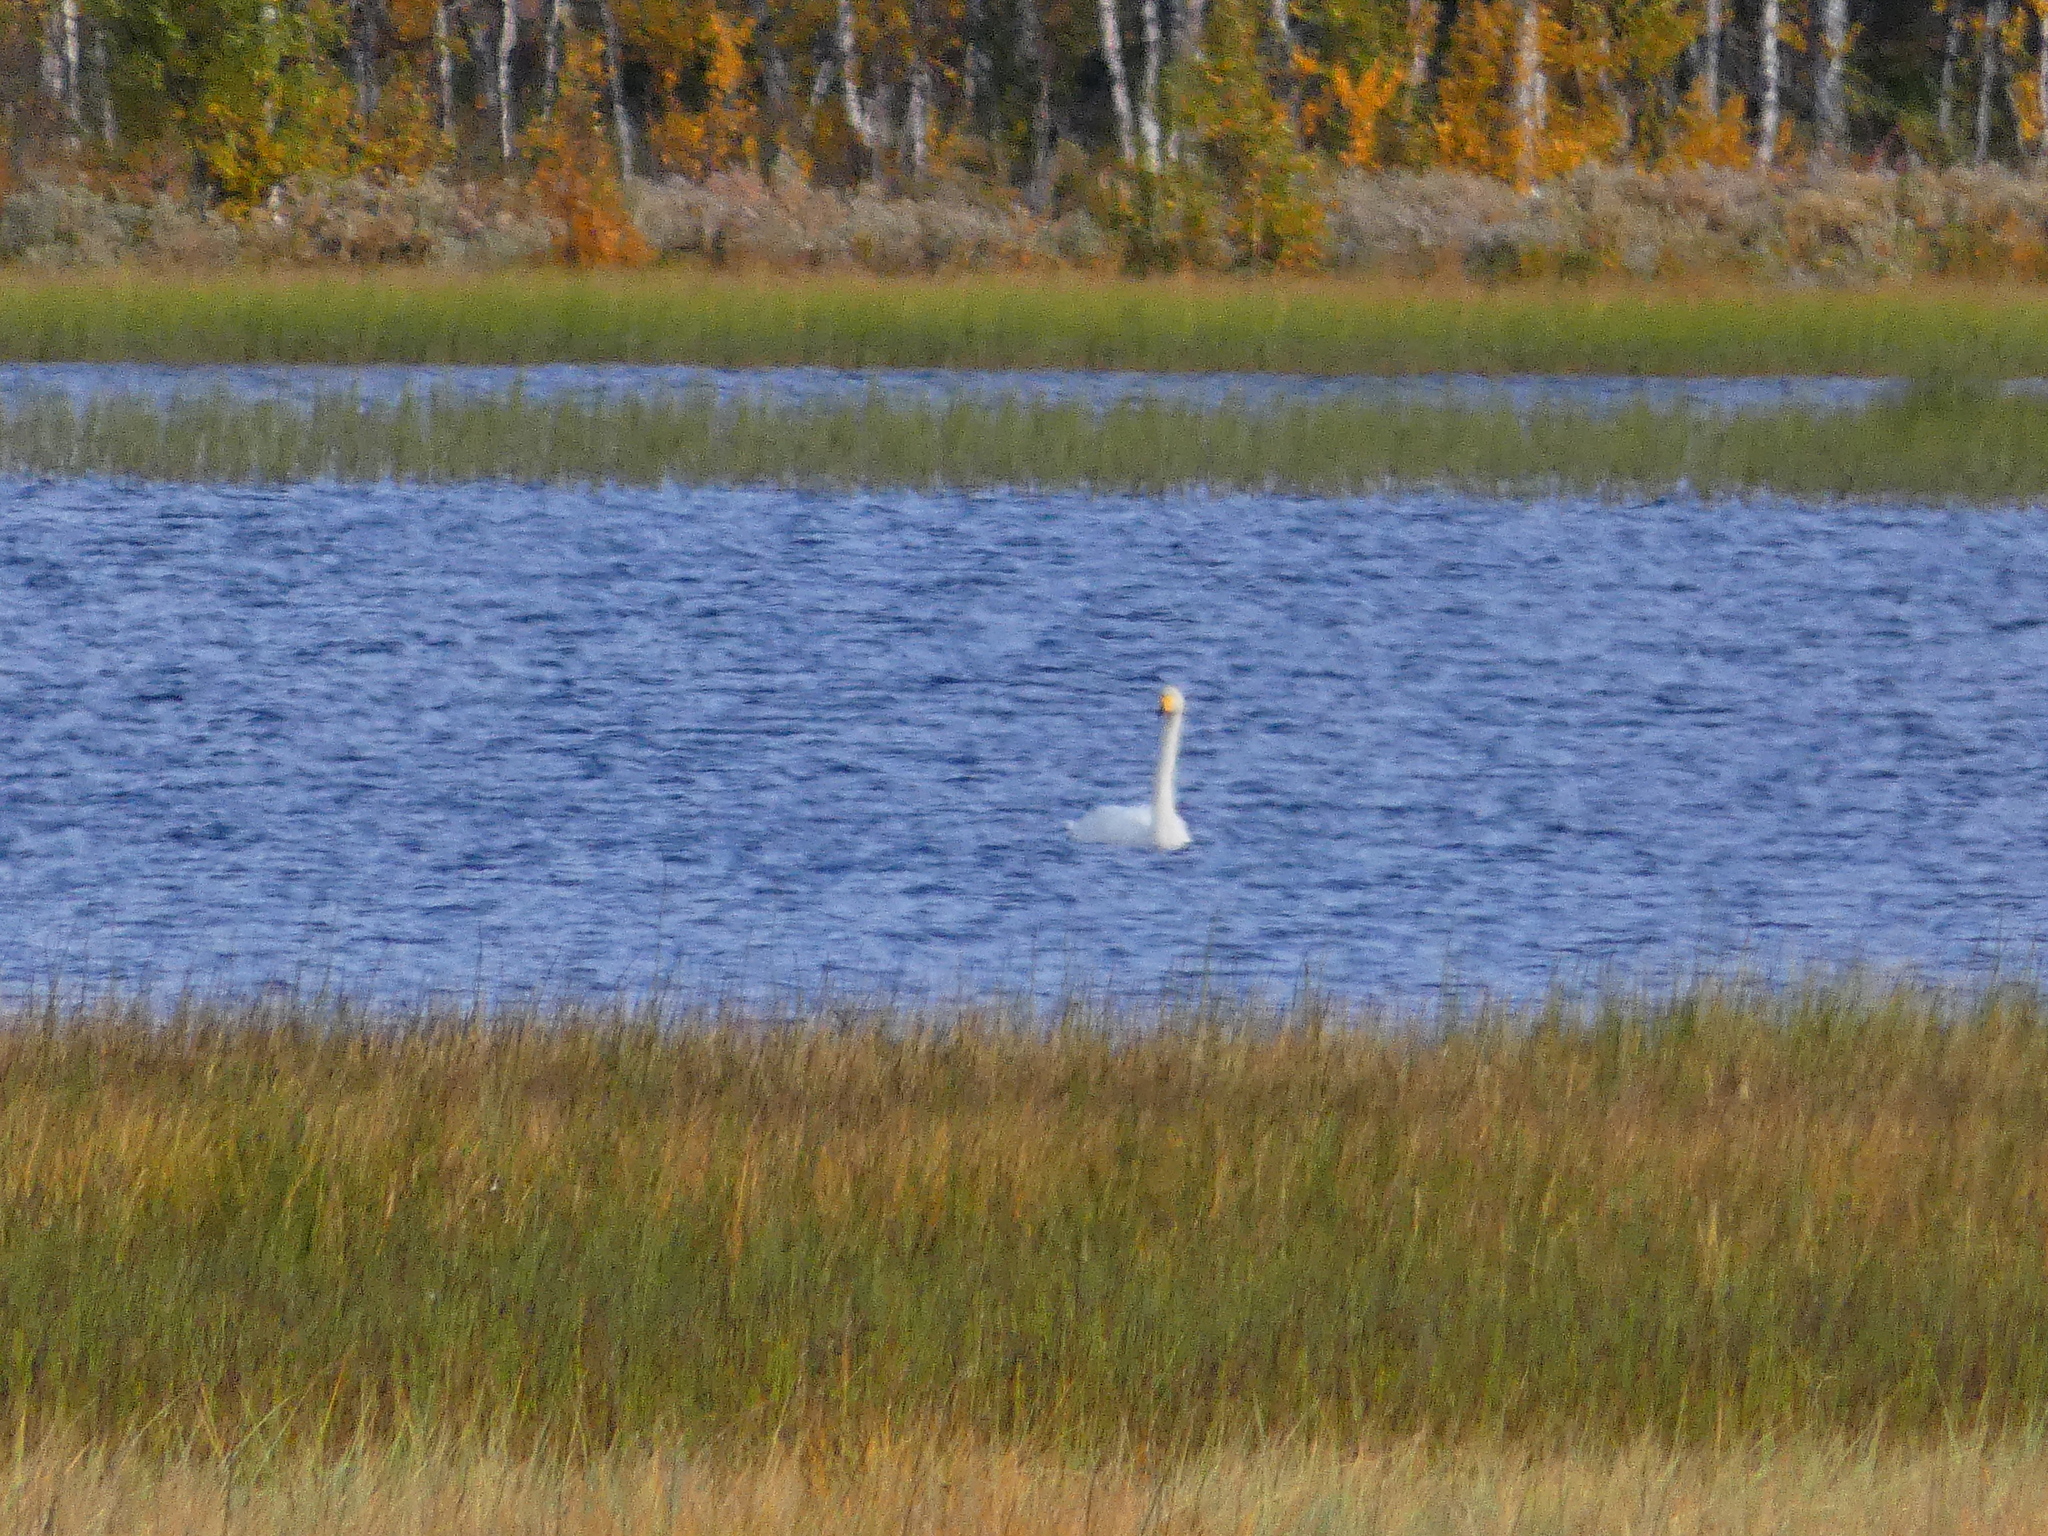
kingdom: Animalia
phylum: Chordata
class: Aves
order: Anseriformes
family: Anatidae
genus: Cygnus
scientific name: Cygnus cygnus
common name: Whooper swan
